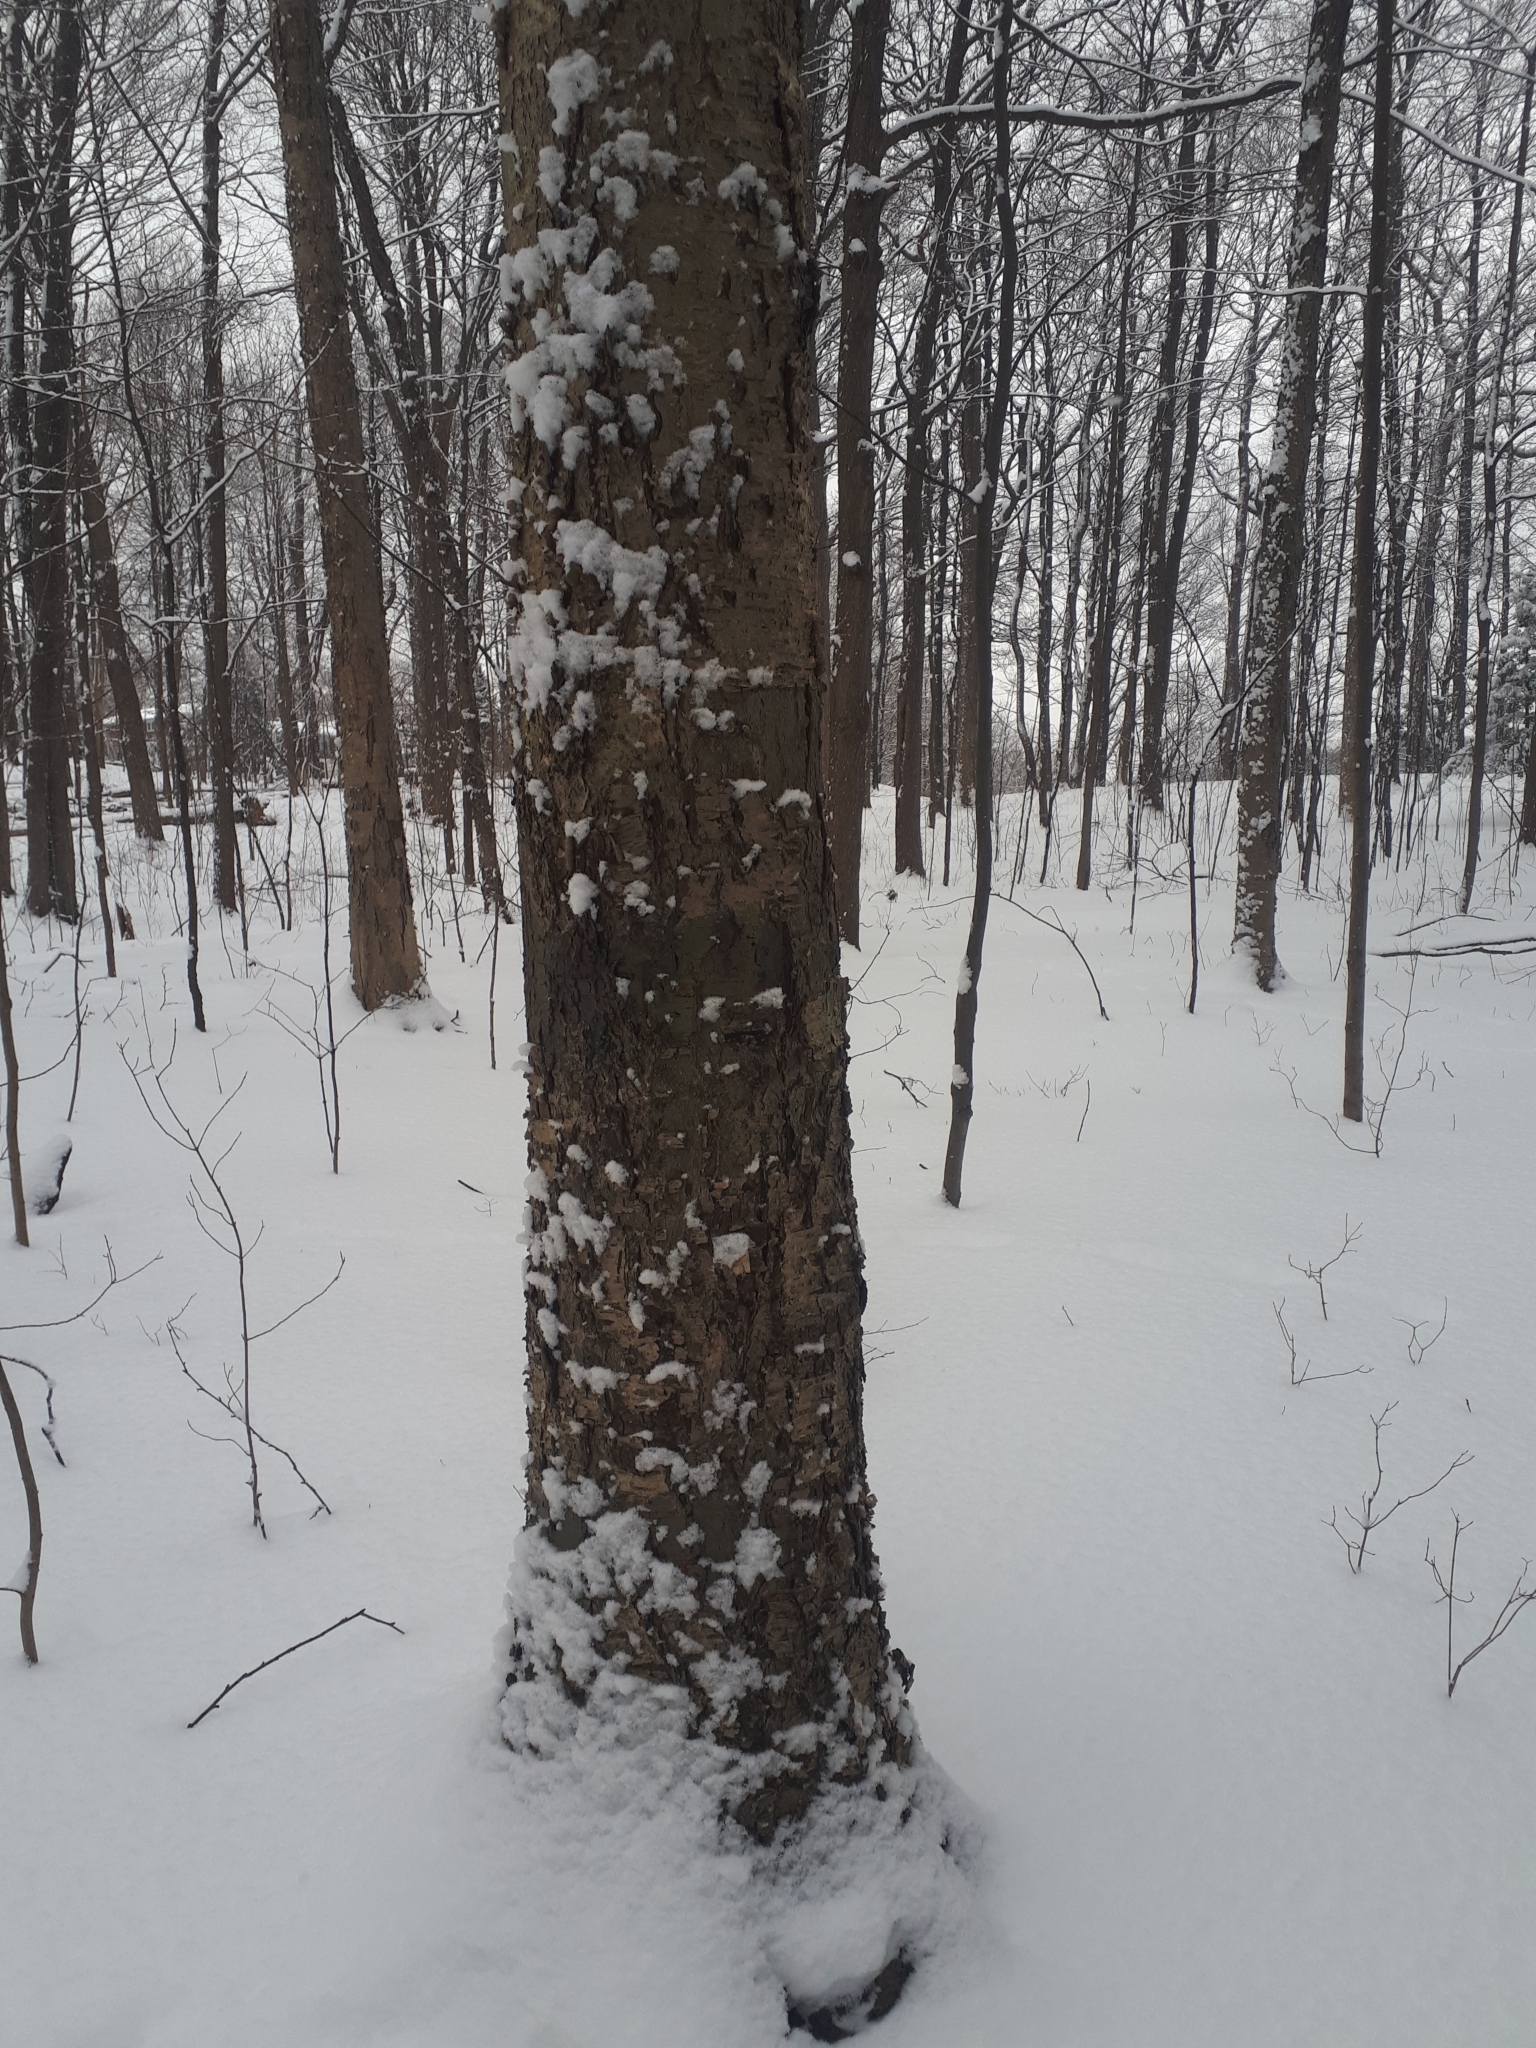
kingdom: Plantae
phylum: Tracheophyta
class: Magnoliopsida
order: Fagales
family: Betulaceae
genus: Betula
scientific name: Betula alleghaniensis
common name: Yellow birch
